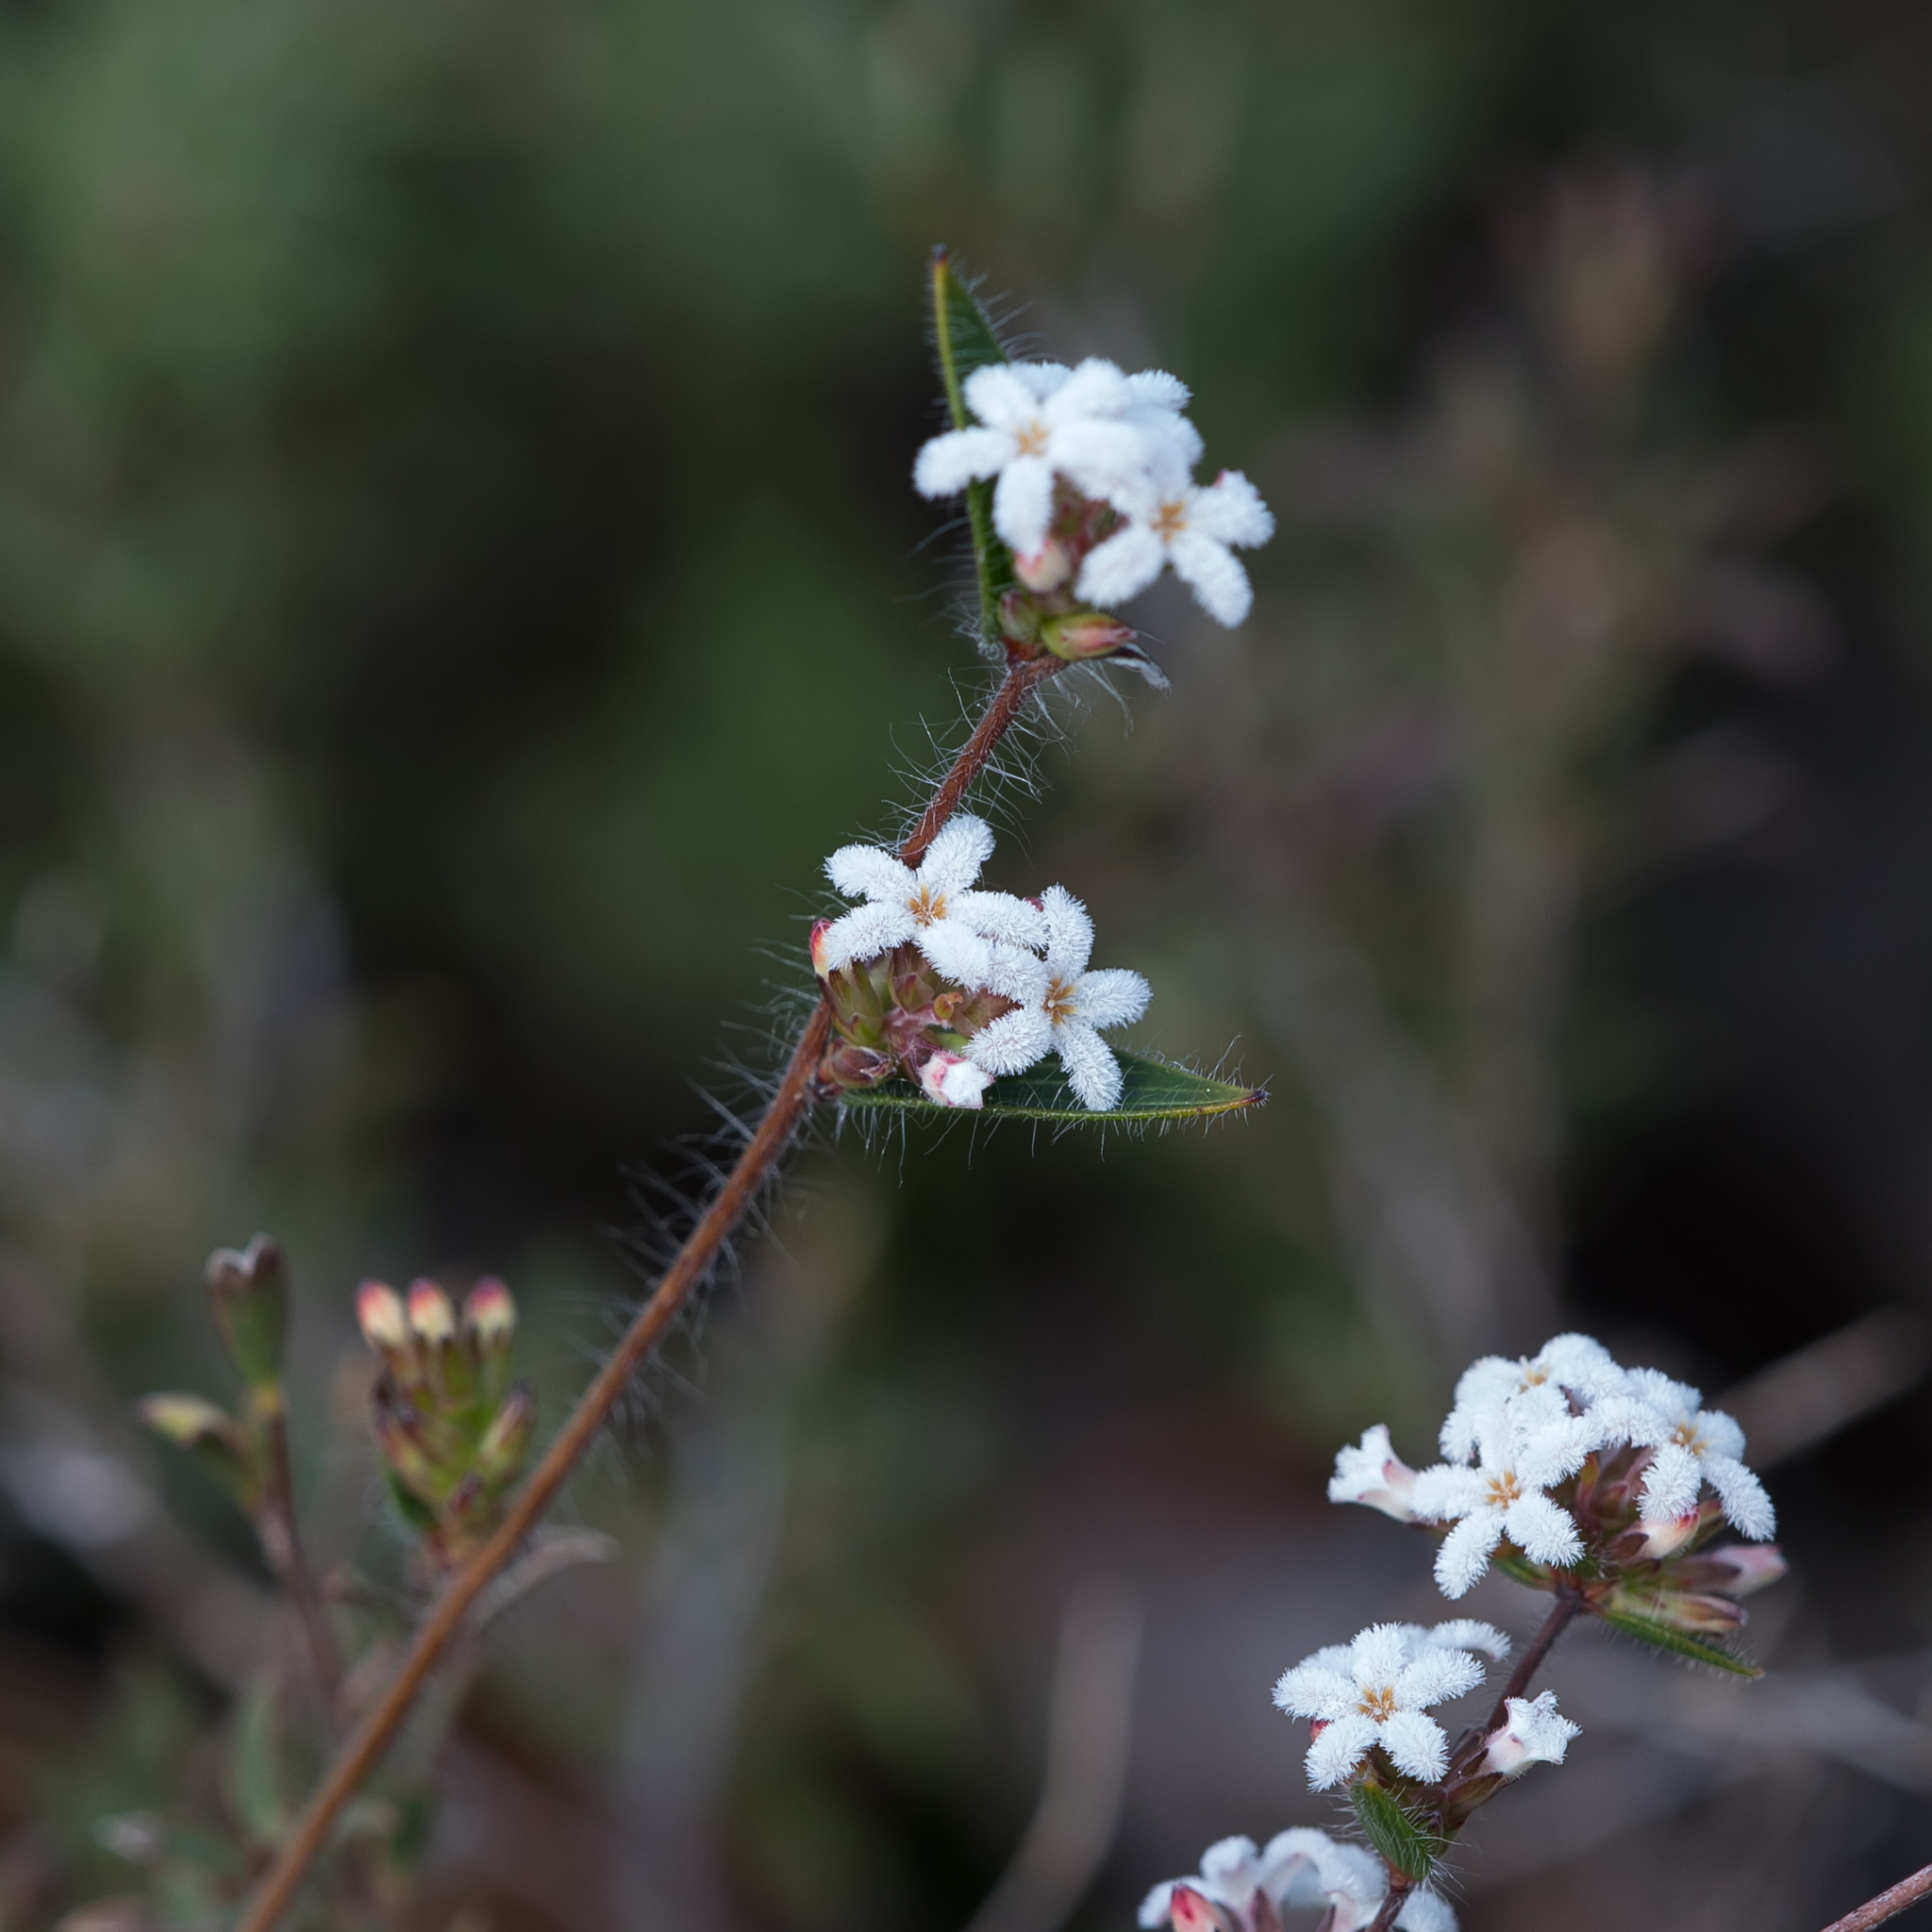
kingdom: Plantae
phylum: Tracheophyta
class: Magnoliopsida
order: Ericales
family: Ericaceae
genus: Leucopogon
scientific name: Leucopogon concurvus
